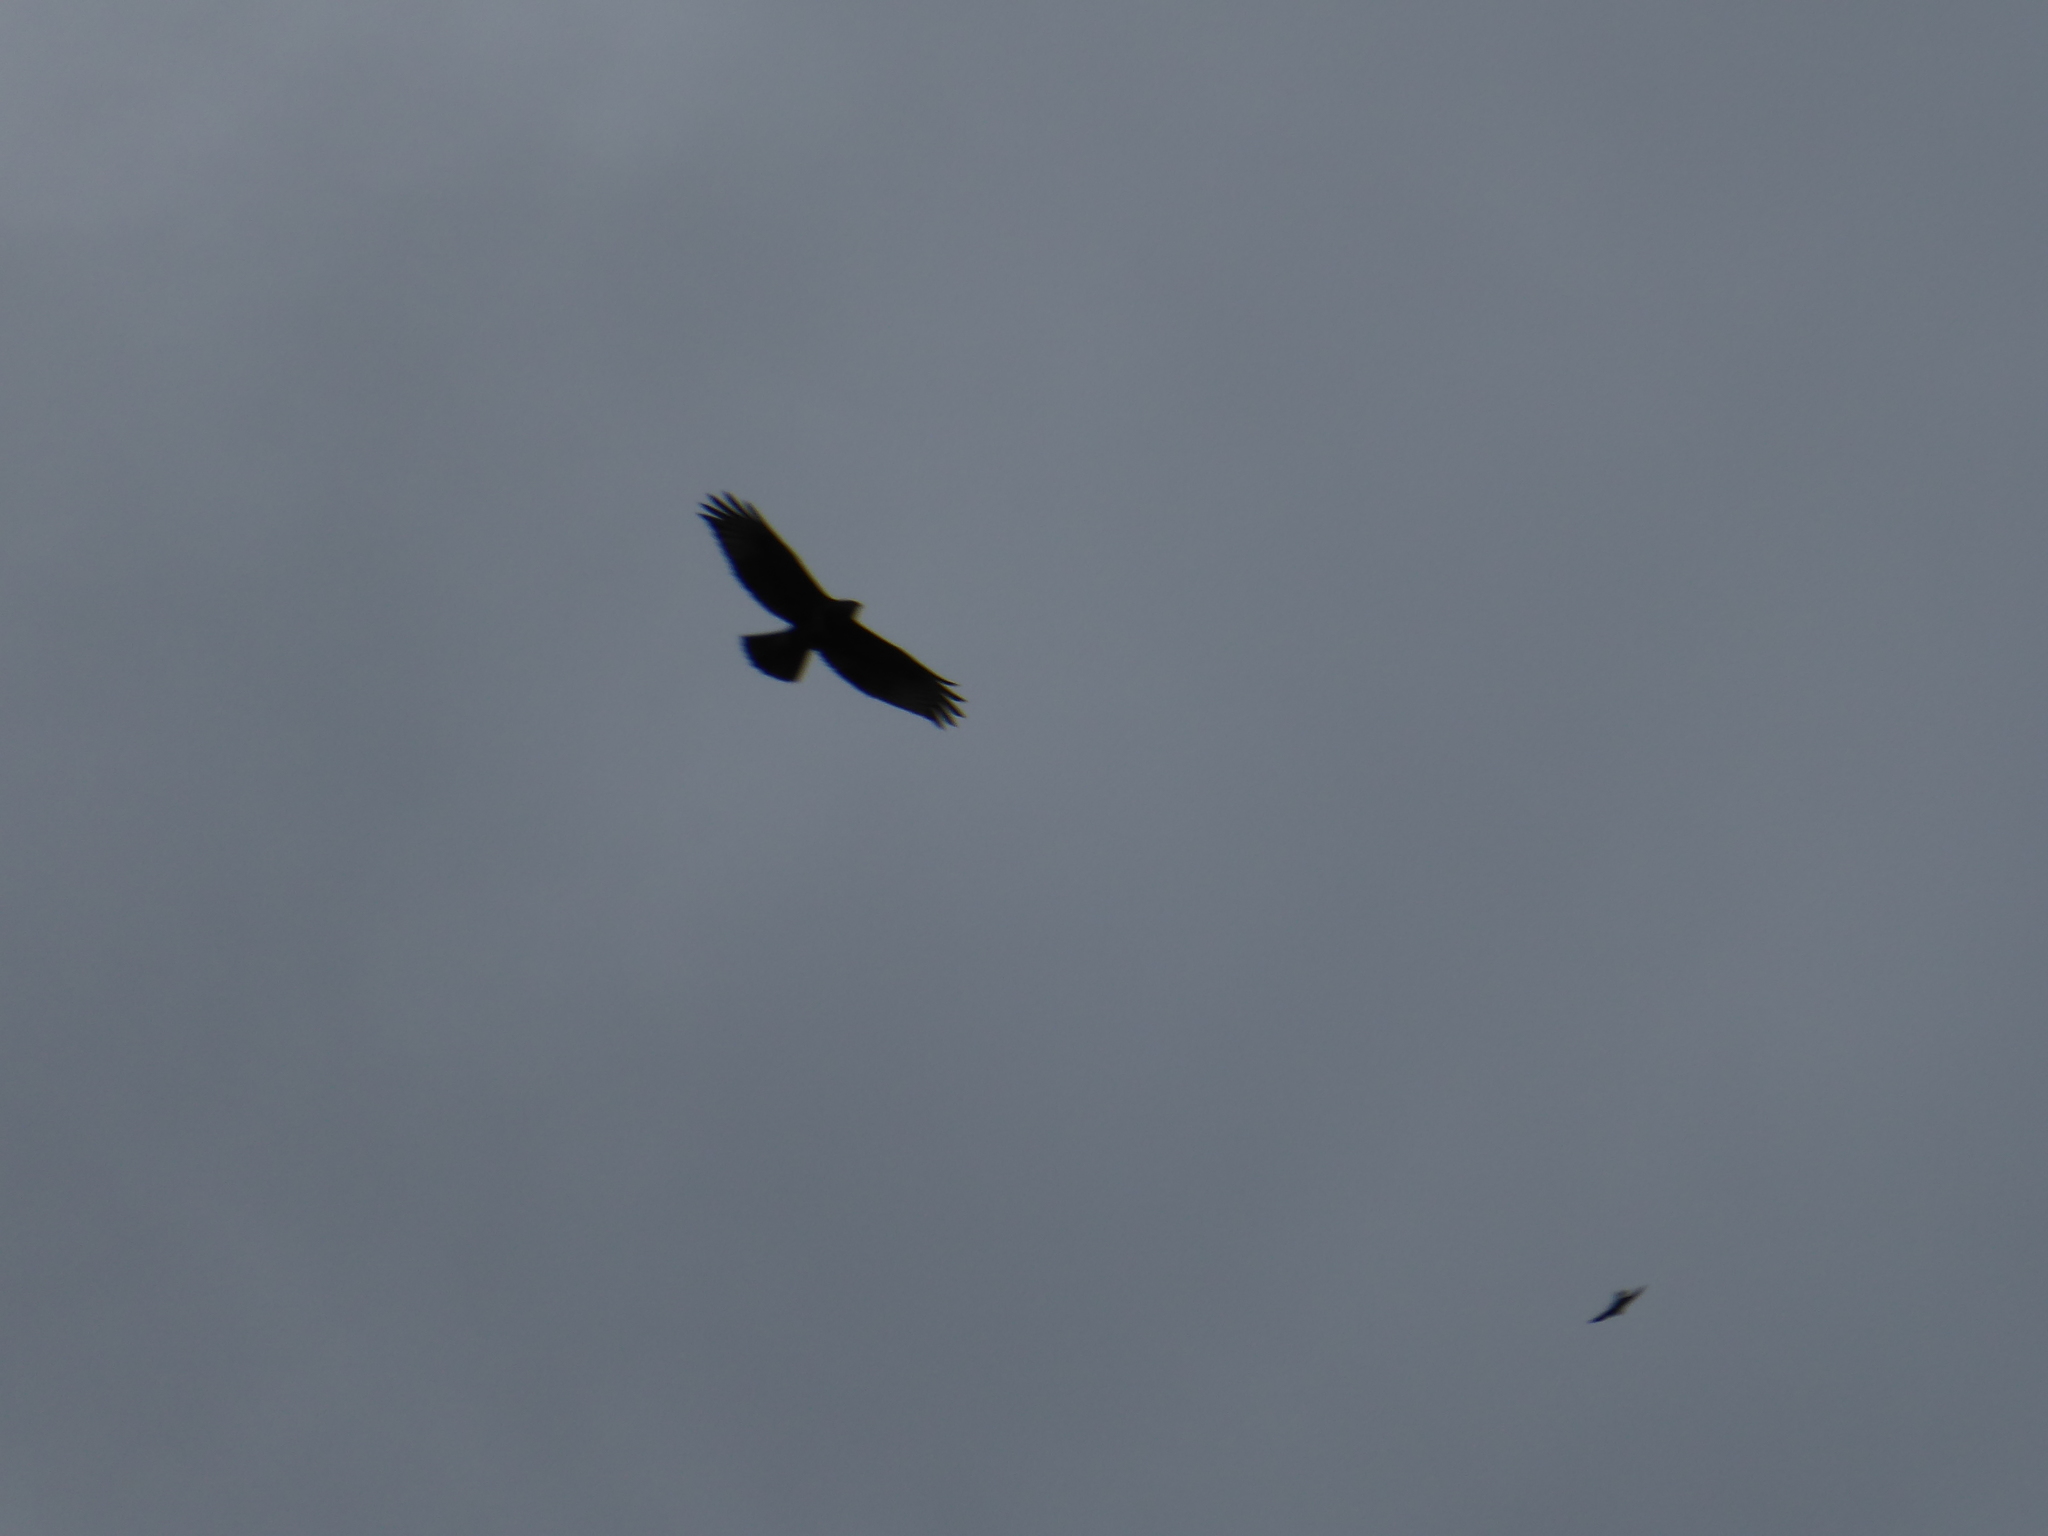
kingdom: Animalia
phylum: Chordata
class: Aves
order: Accipitriformes
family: Accipitridae
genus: Buteo
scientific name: Buteo buteo
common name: Common buzzard
